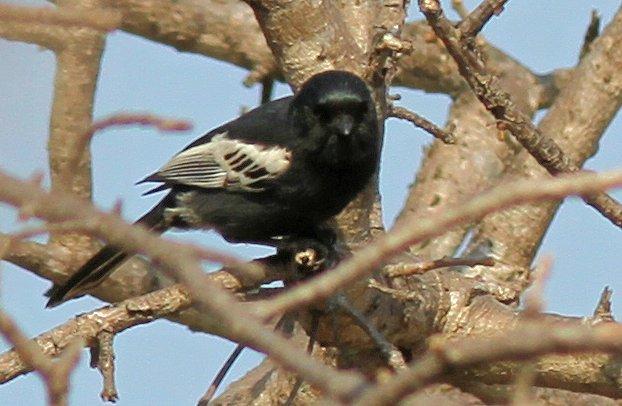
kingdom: Animalia
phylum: Chordata
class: Aves
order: Passeriformes
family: Paridae
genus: Parus
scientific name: Parus niger
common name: Southern black tit
